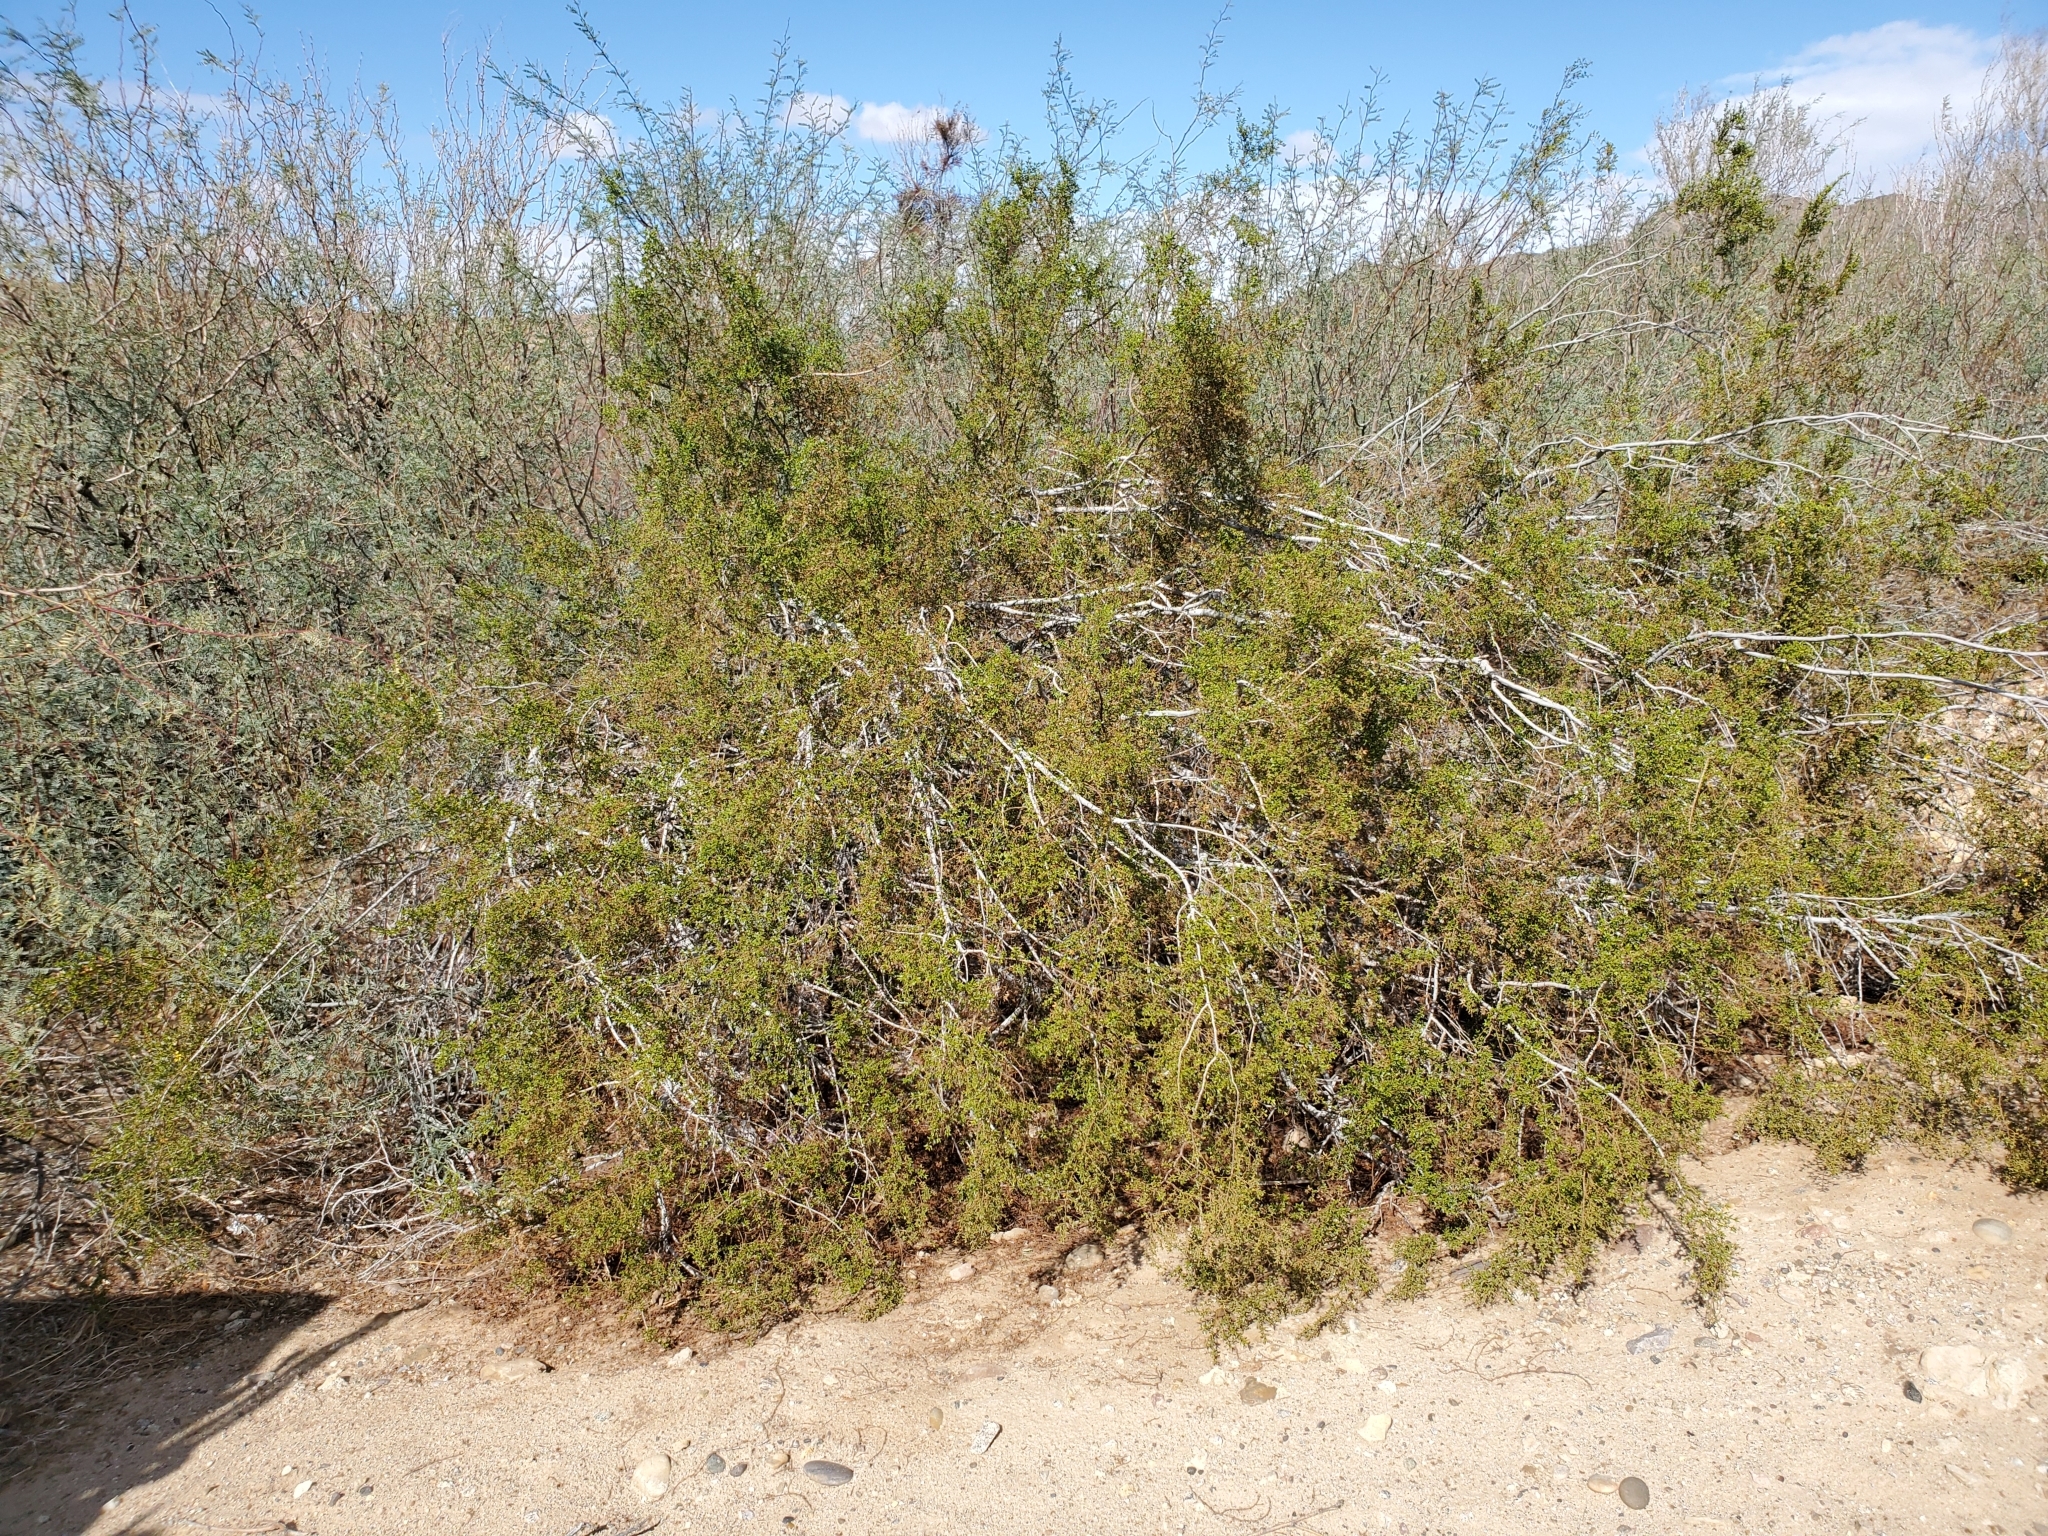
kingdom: Plantae
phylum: Tracheophyta
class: Magnoliopsida
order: Zygophyllales
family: Zygophyllaceae
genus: Larrea
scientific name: Larrea tridentata
